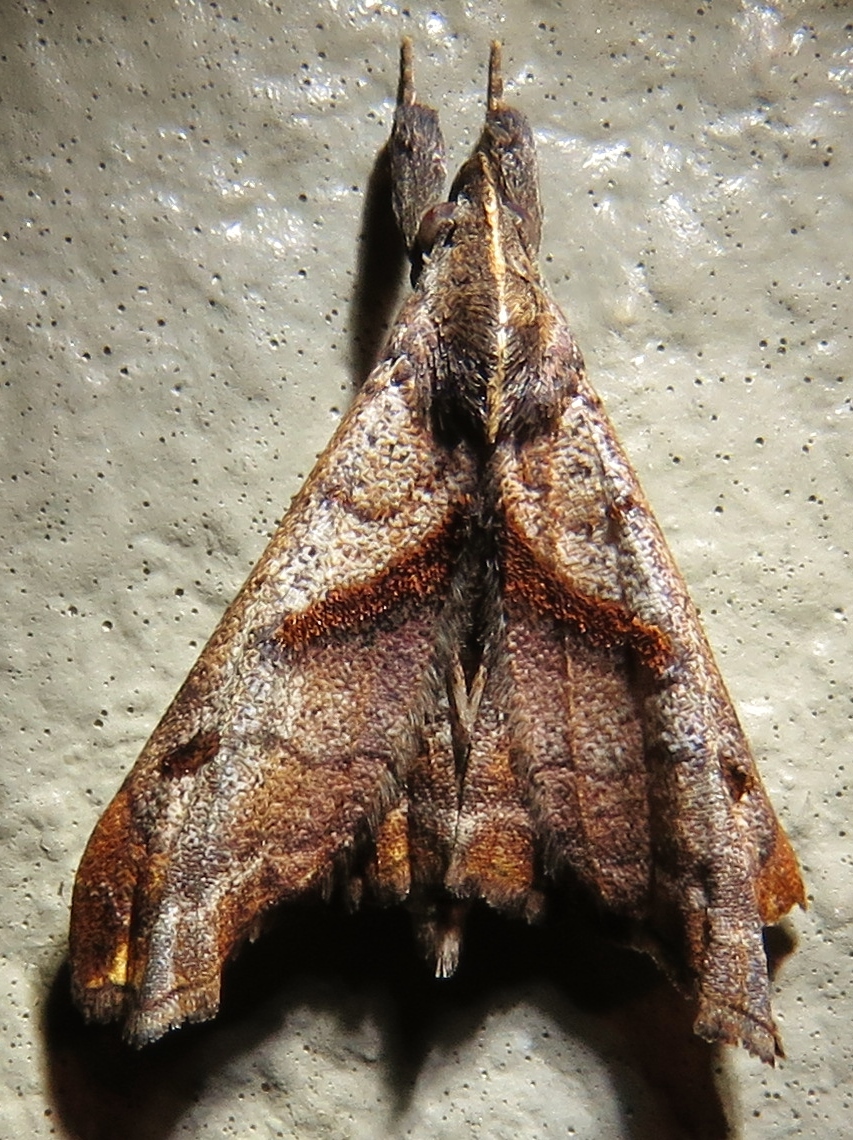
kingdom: Animalia
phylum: Arthropoda
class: Insecta
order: Lepidoptera
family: Erebidae
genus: Palthis
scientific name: Palthis angulalis
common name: Dark-spotted palthis moth
